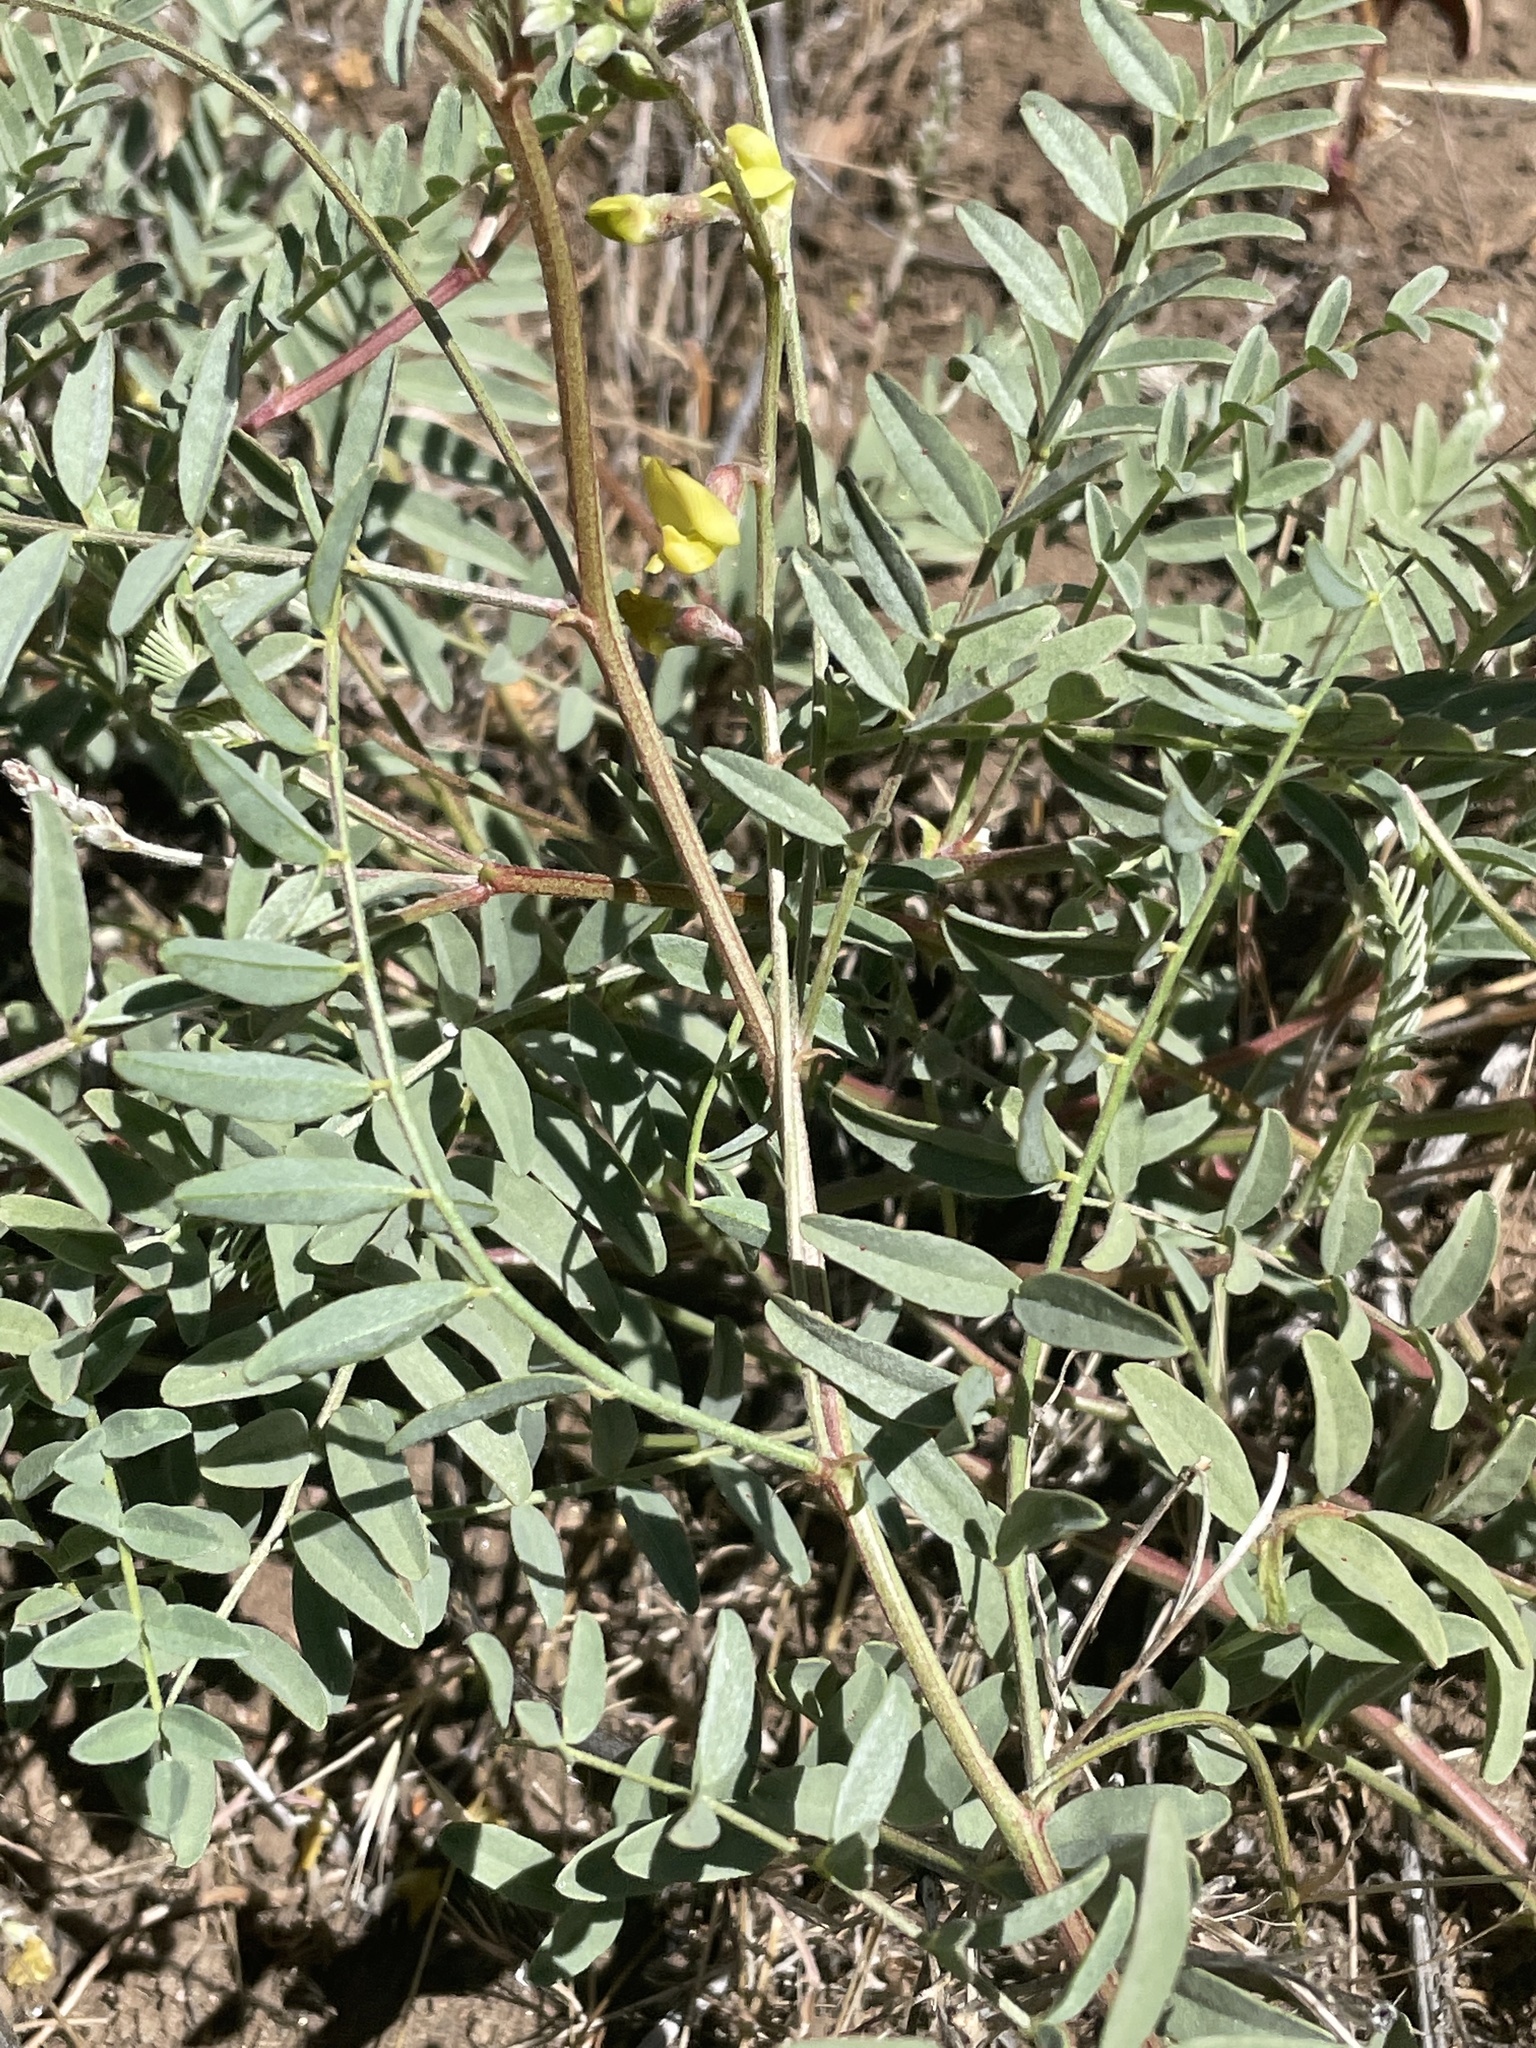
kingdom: Plantae
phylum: Tracheophyta
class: Magnoliopsida
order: Fabales
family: Fabaceae
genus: Astragalus
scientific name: Astragalus douglasii
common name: Jacumba milkvetch
